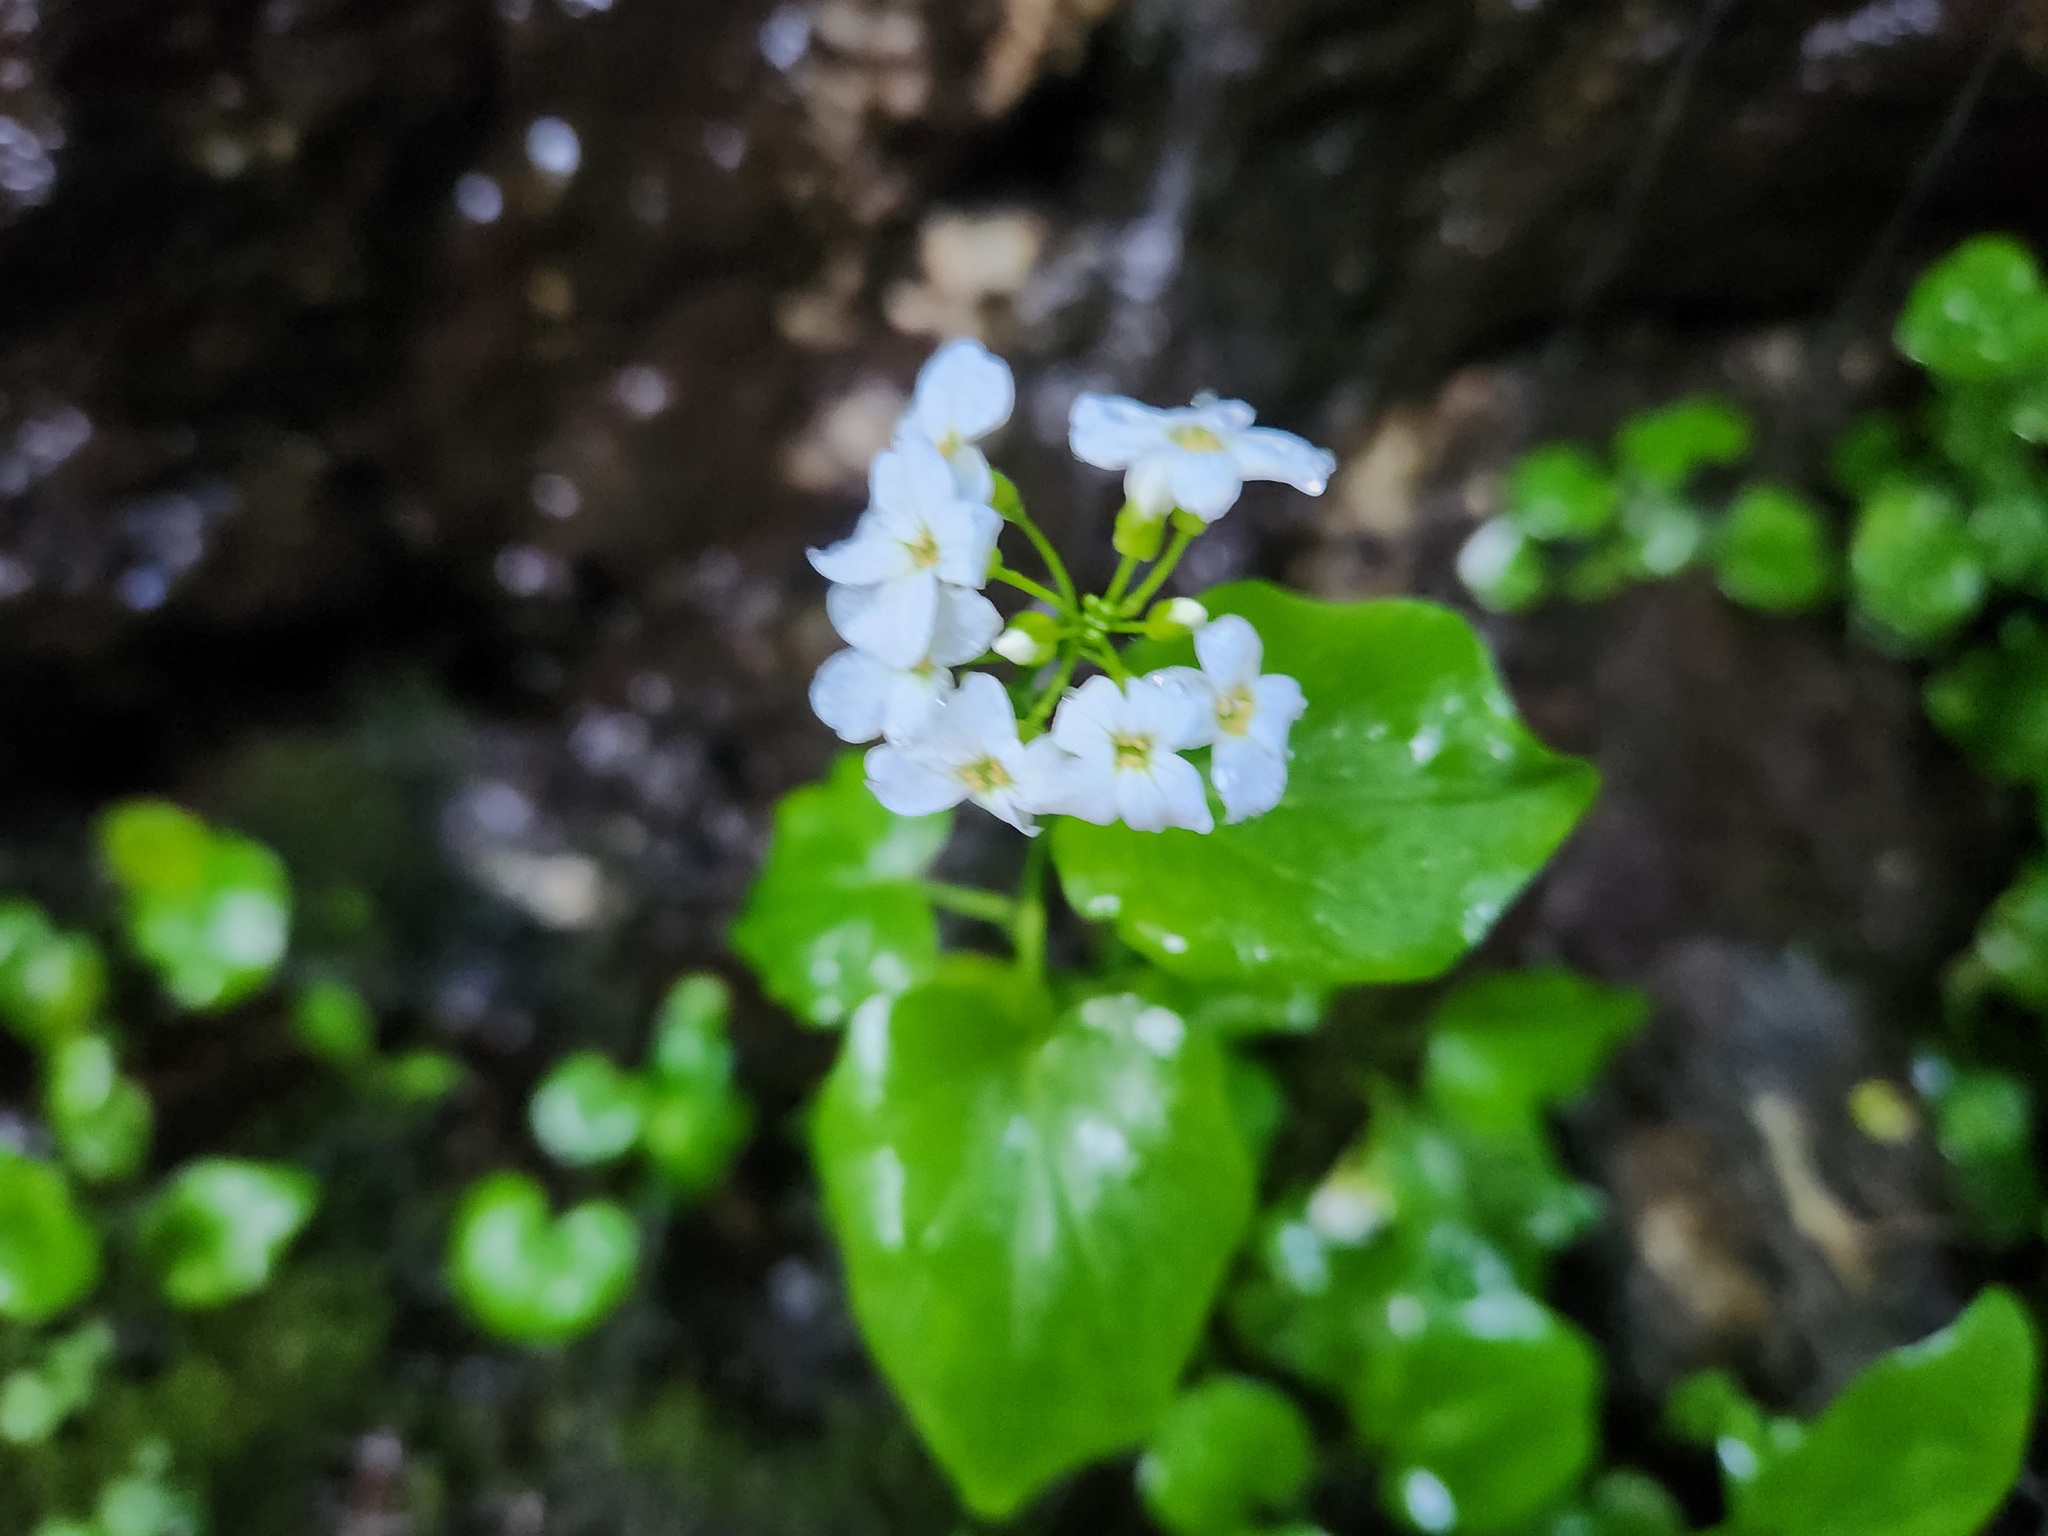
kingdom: Plantae
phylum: Tracheophyta
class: Magnoliopsida
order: Brassicales
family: Brassicaceae
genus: Cardamine
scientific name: Cardamine cordifolia
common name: Heart-leaf bittercress
